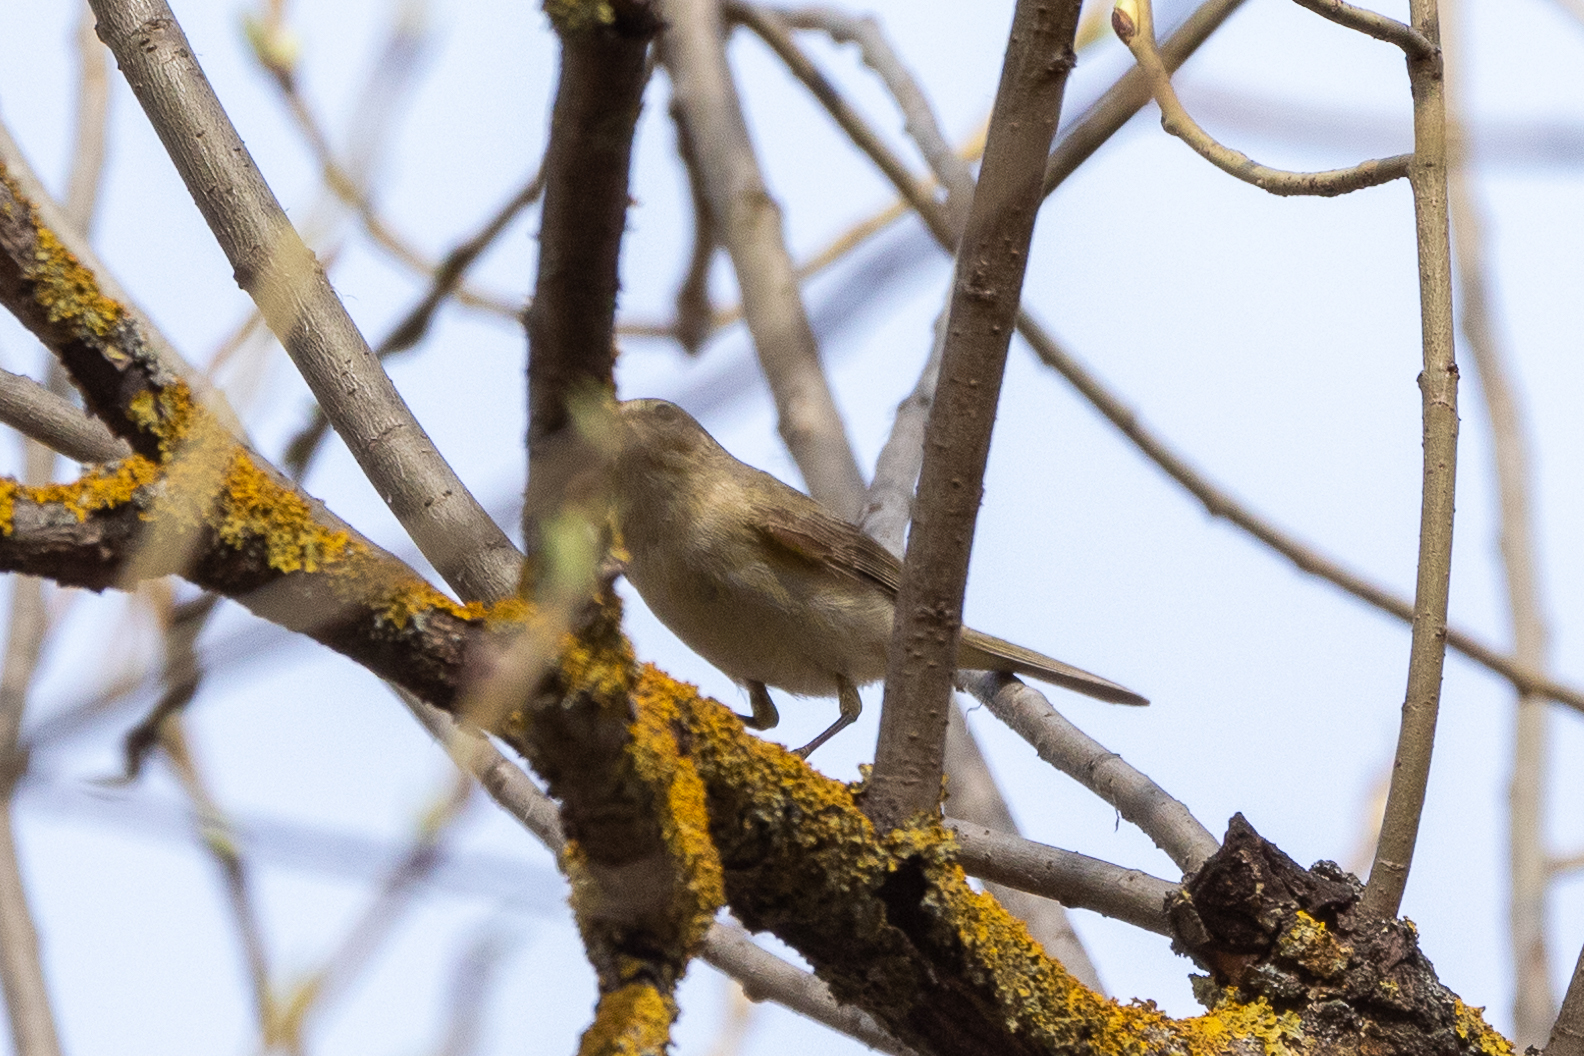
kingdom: Animalia
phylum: Chordata
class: Aves
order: Passeriformes
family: Phylloscopidae
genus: Phylloscopus
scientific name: Phylloscopus collybita
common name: Common chiffchaff
